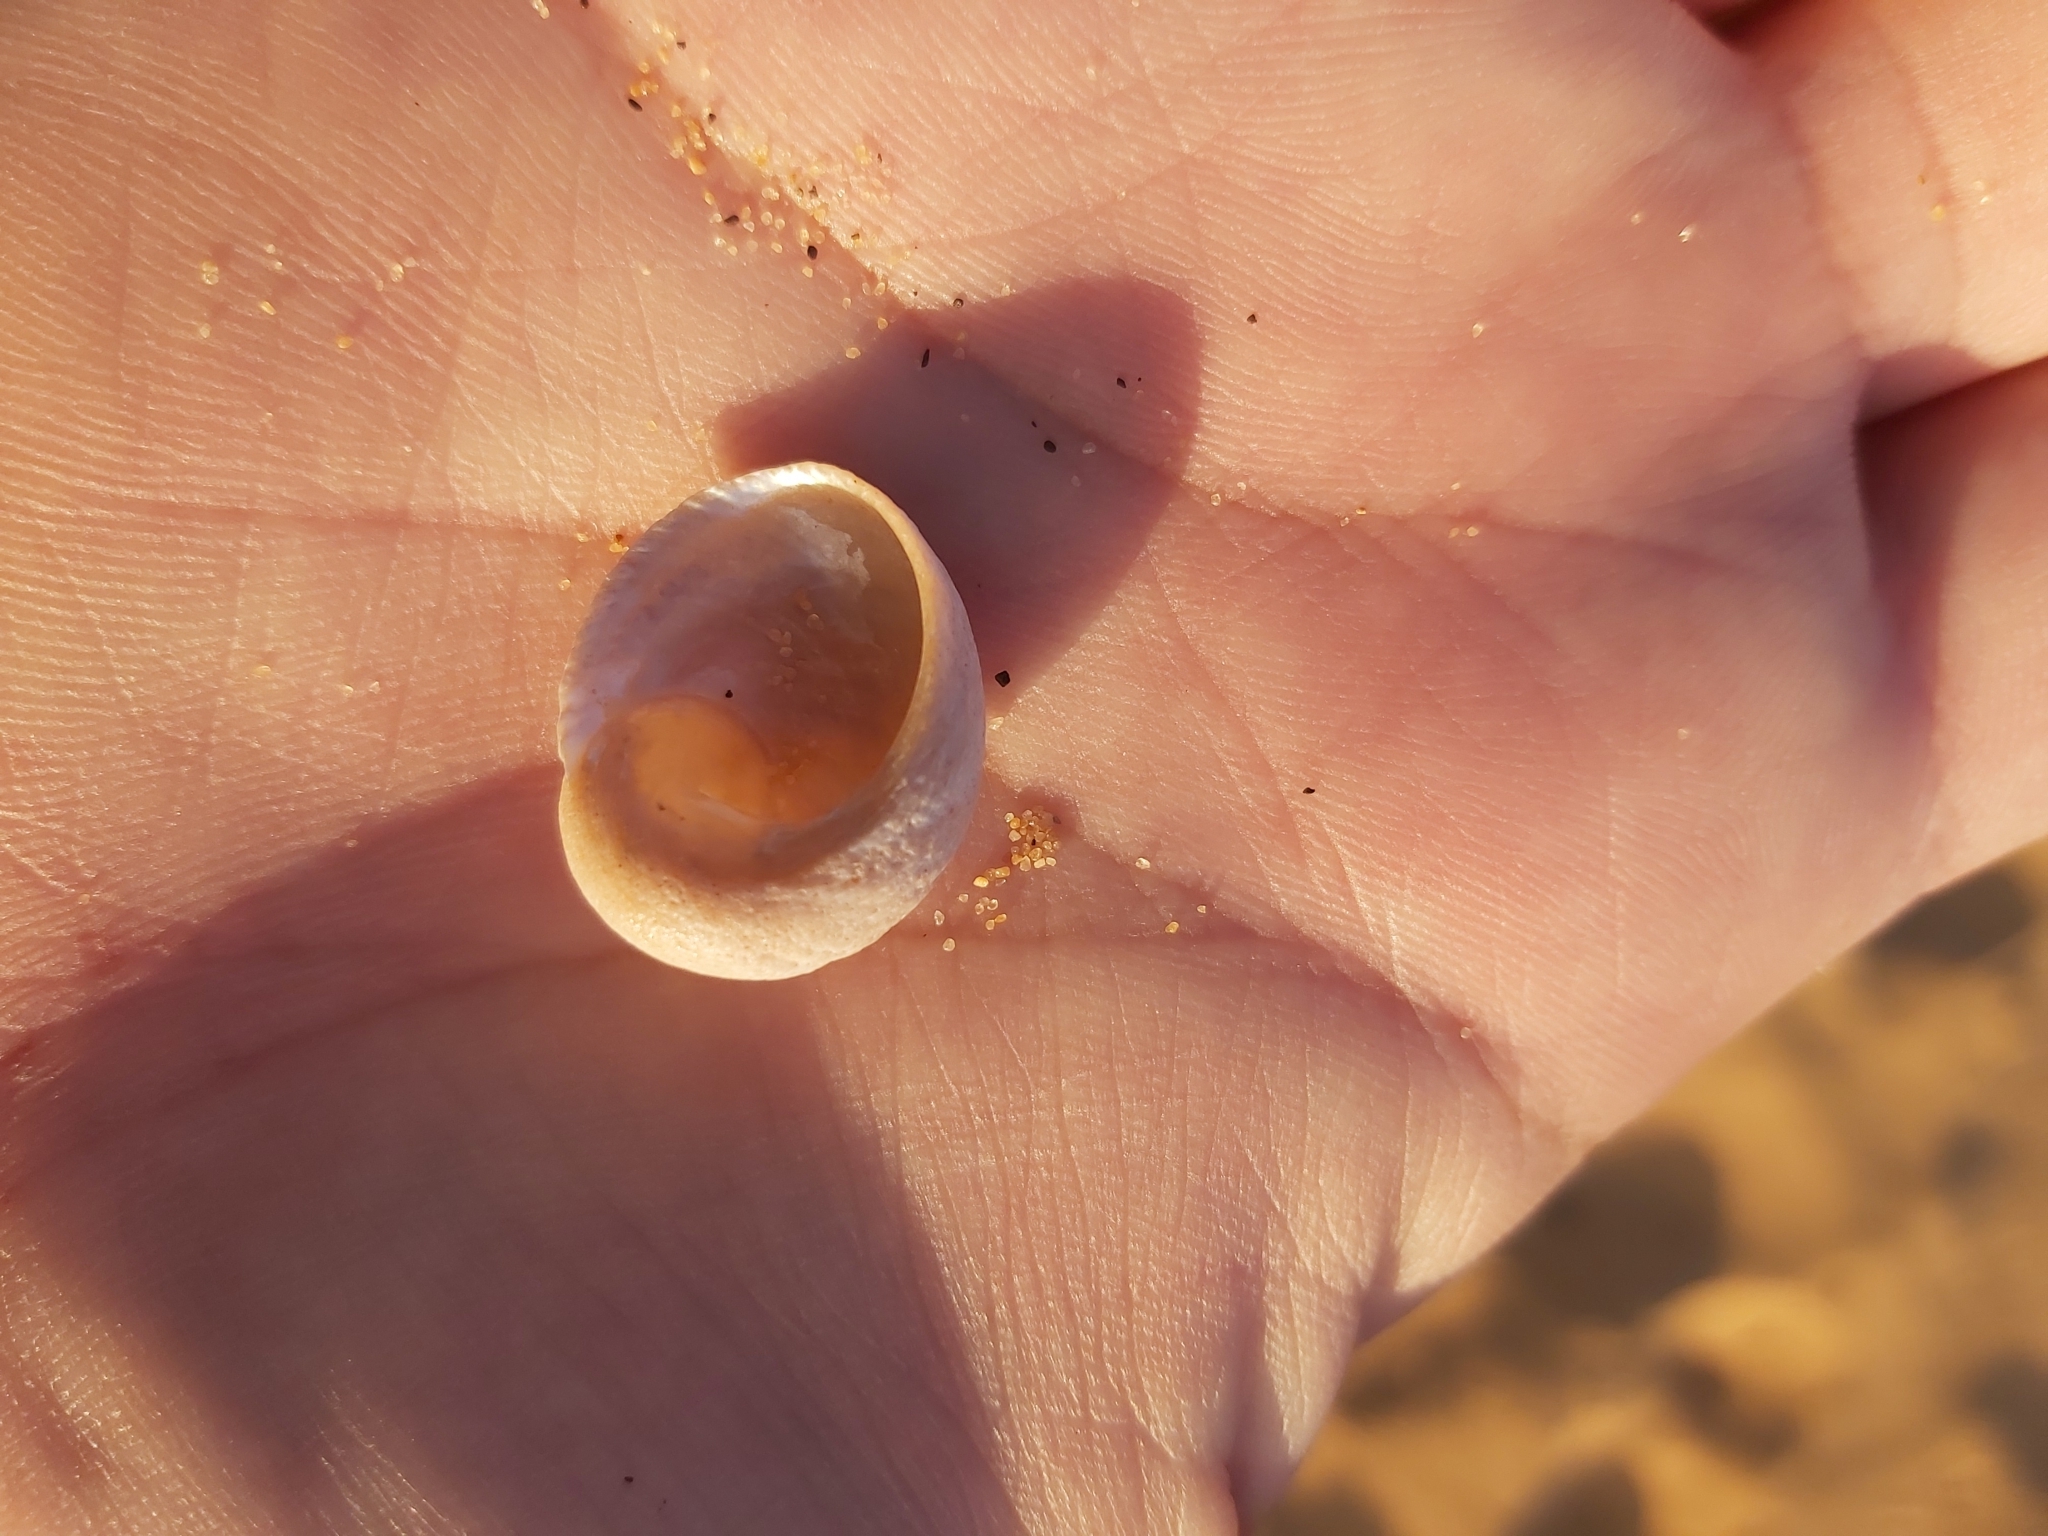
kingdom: Animalia
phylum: Mollusca
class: Gastropoda
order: Seguenziida
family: Chilodontaidae
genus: Granata
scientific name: Granata imbricata
